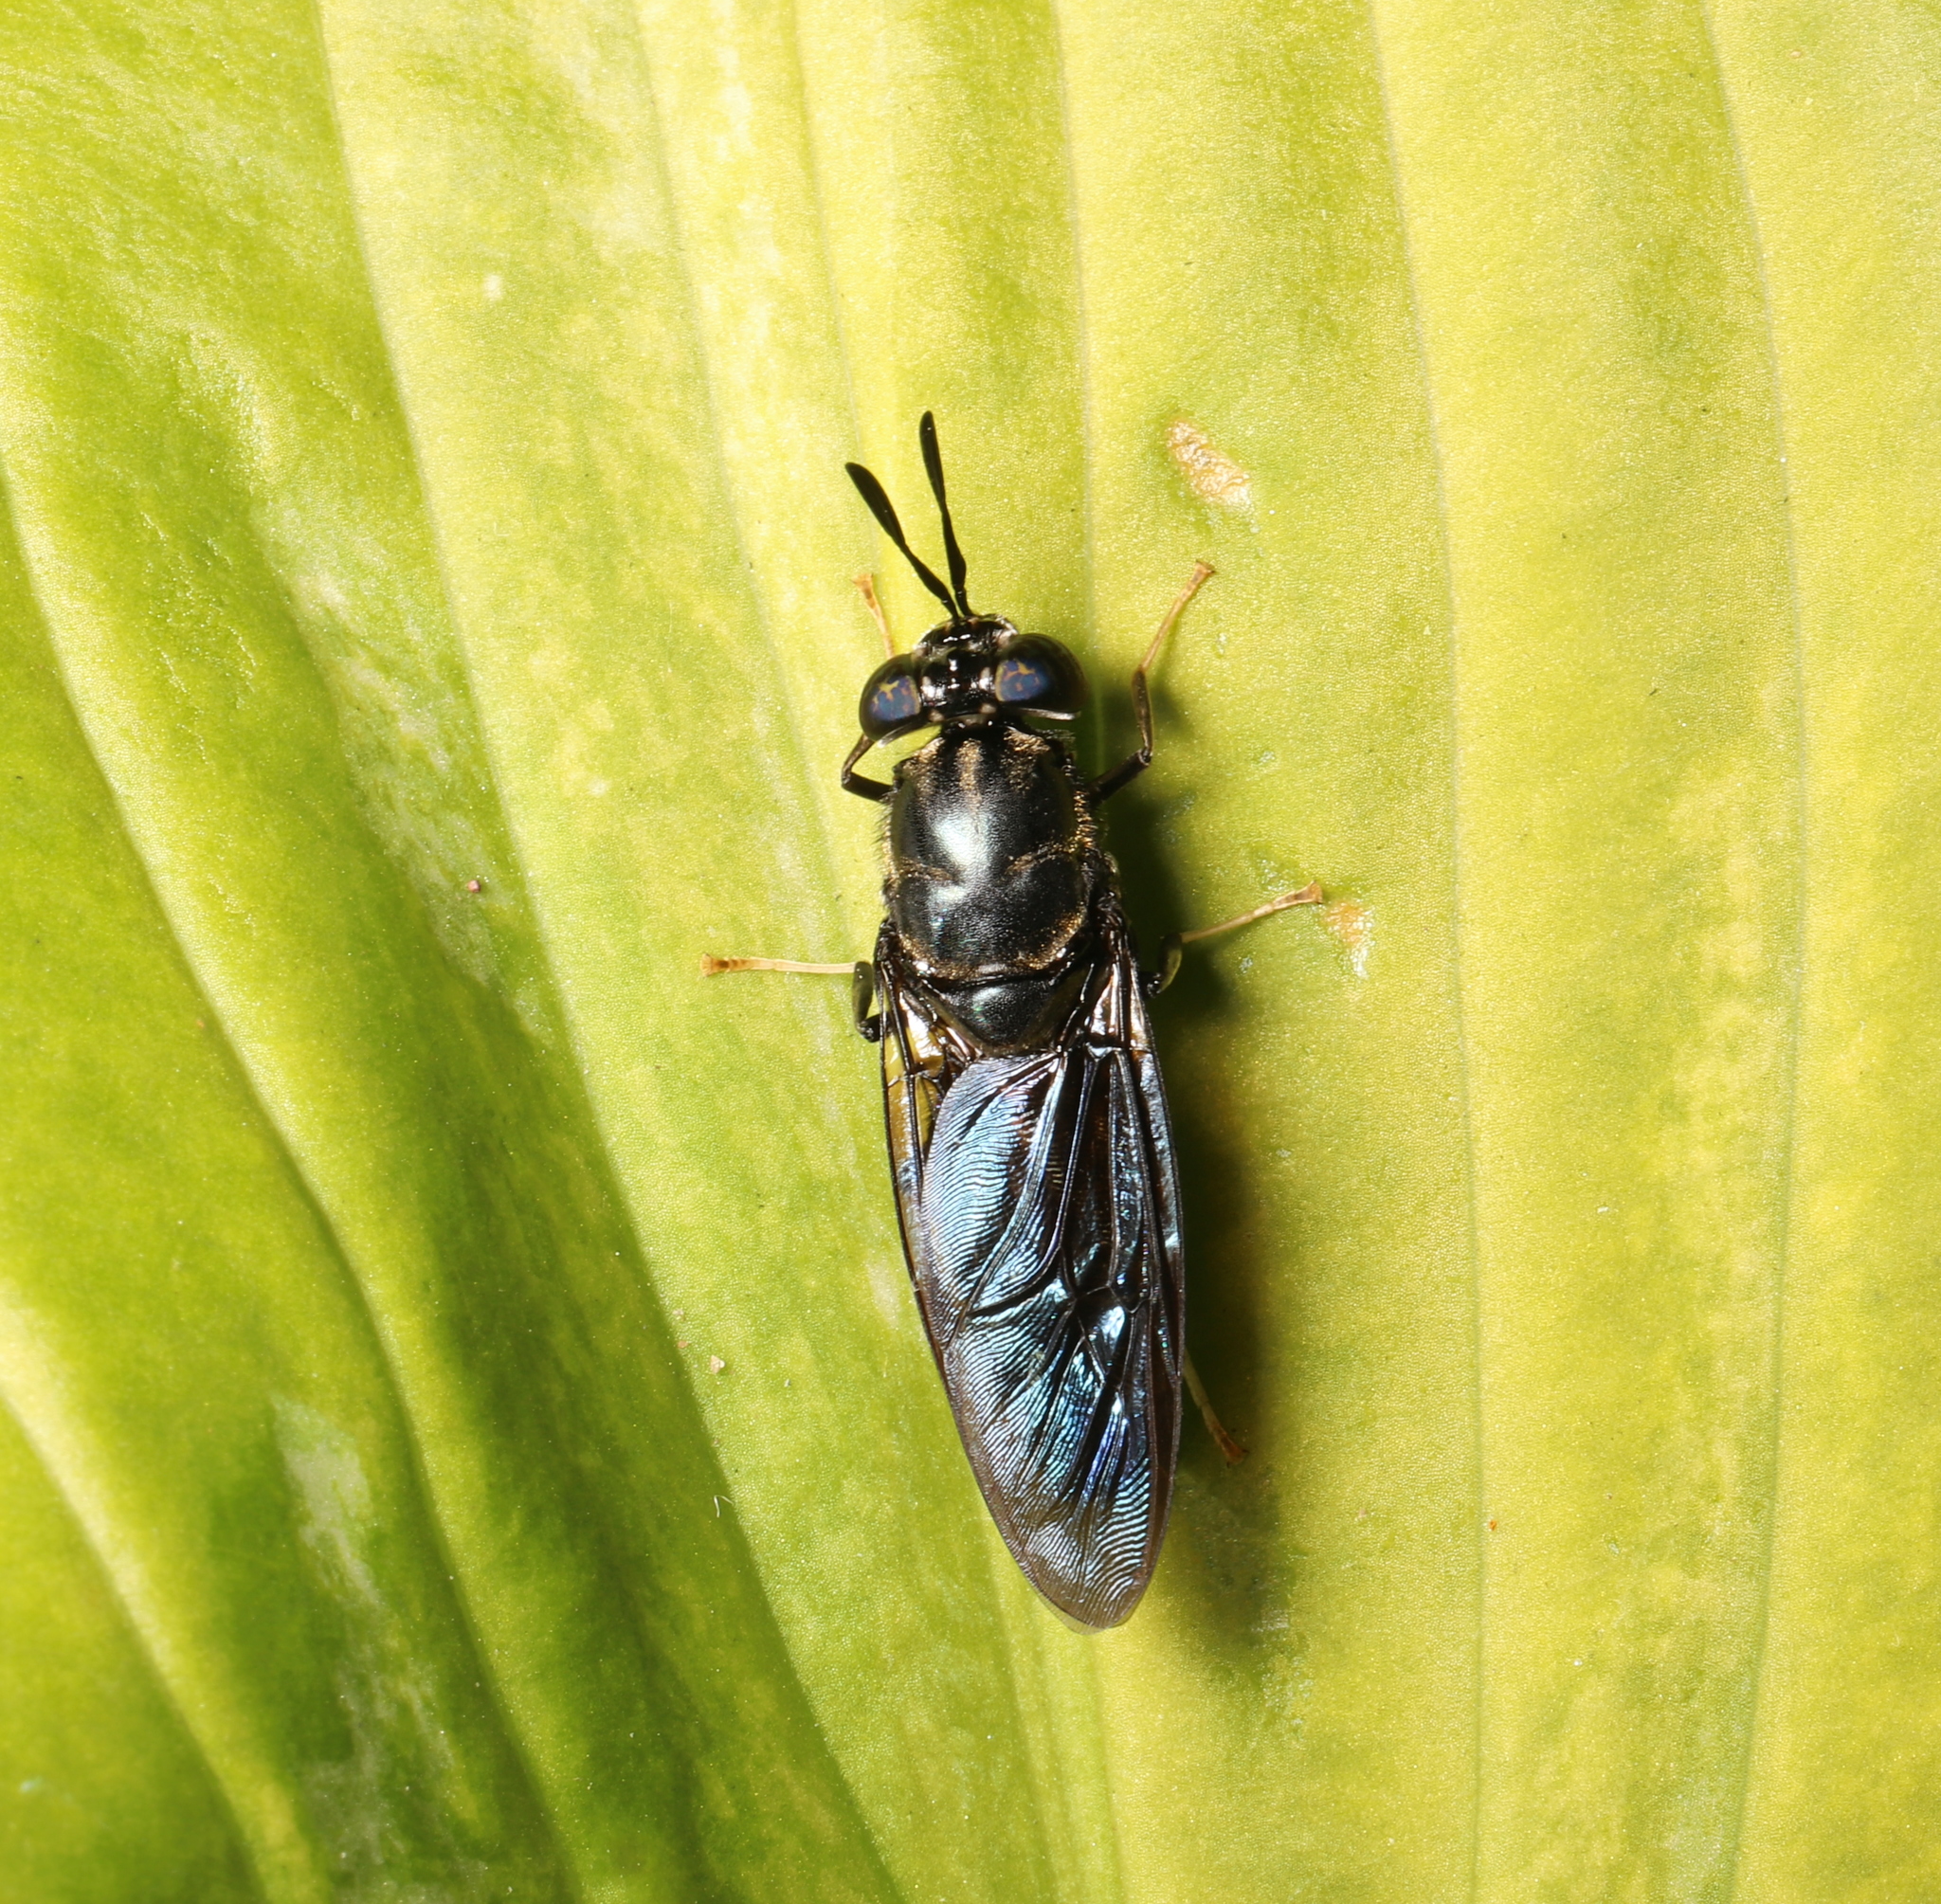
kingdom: Animalia
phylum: Arthropoda
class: Insecta
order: Diptera
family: Stratiomyidae
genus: Hermetia
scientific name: Hermetia illucens
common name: Black soldier fly
